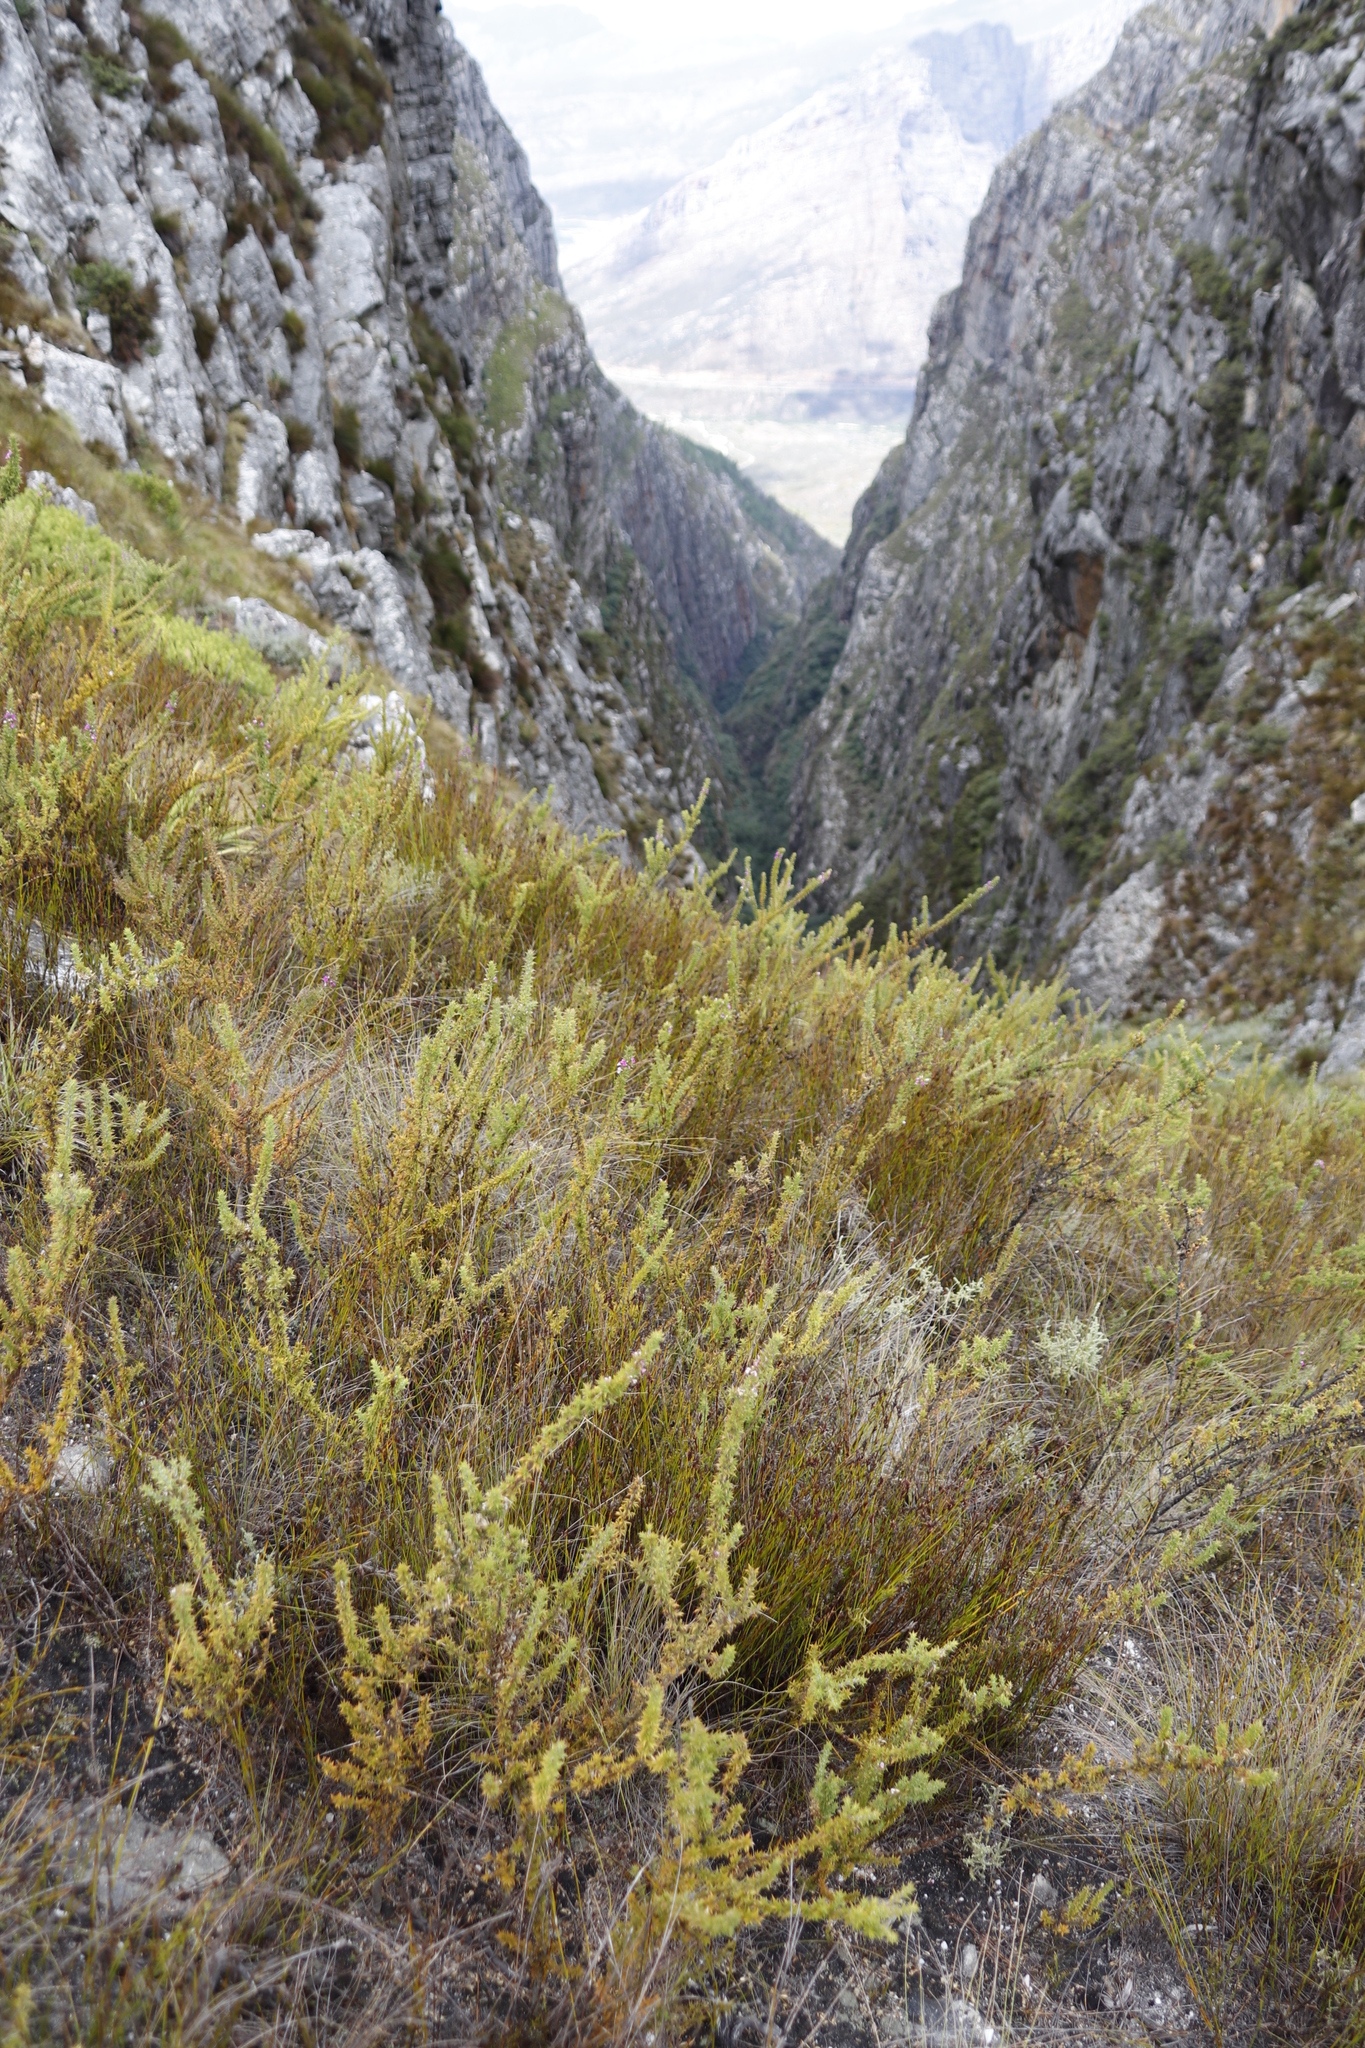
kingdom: Plantae
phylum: Tracheophyta
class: Magnoliopsida
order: Fabales
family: Polygalaceae
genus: Muraltia
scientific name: Muraltia heisteria
